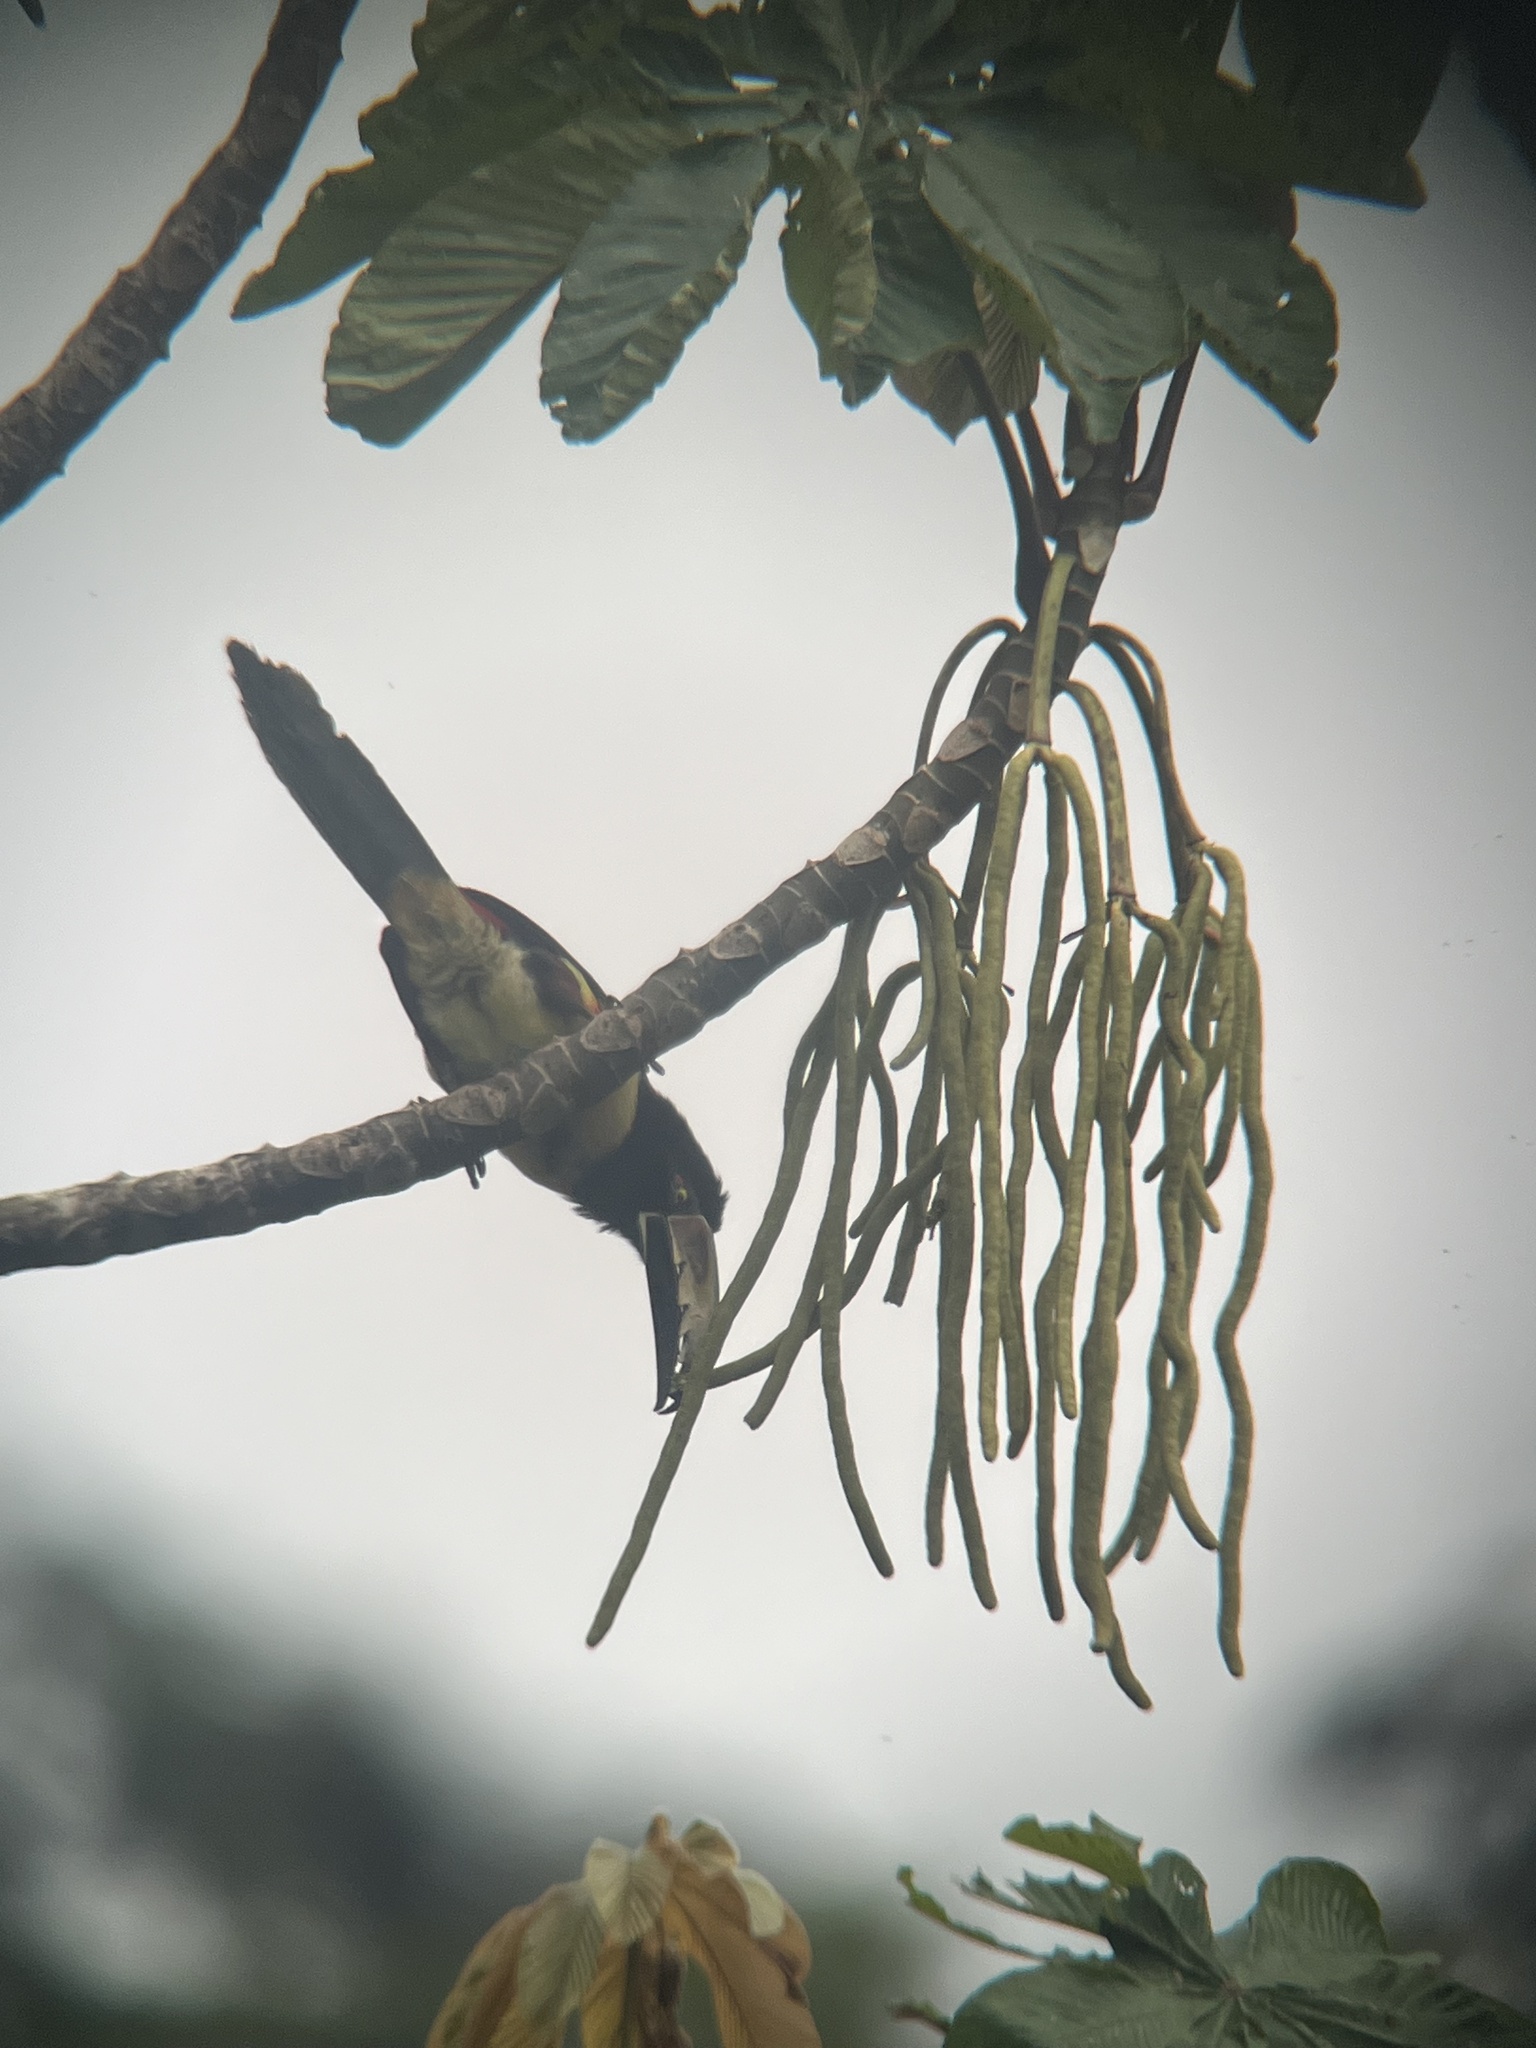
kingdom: Animalia
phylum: Chordata
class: Aves
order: Piciformes
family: Ramphastidae
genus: Pteroglossus
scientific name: Pteroglossus torquatus
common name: Collared aracari
